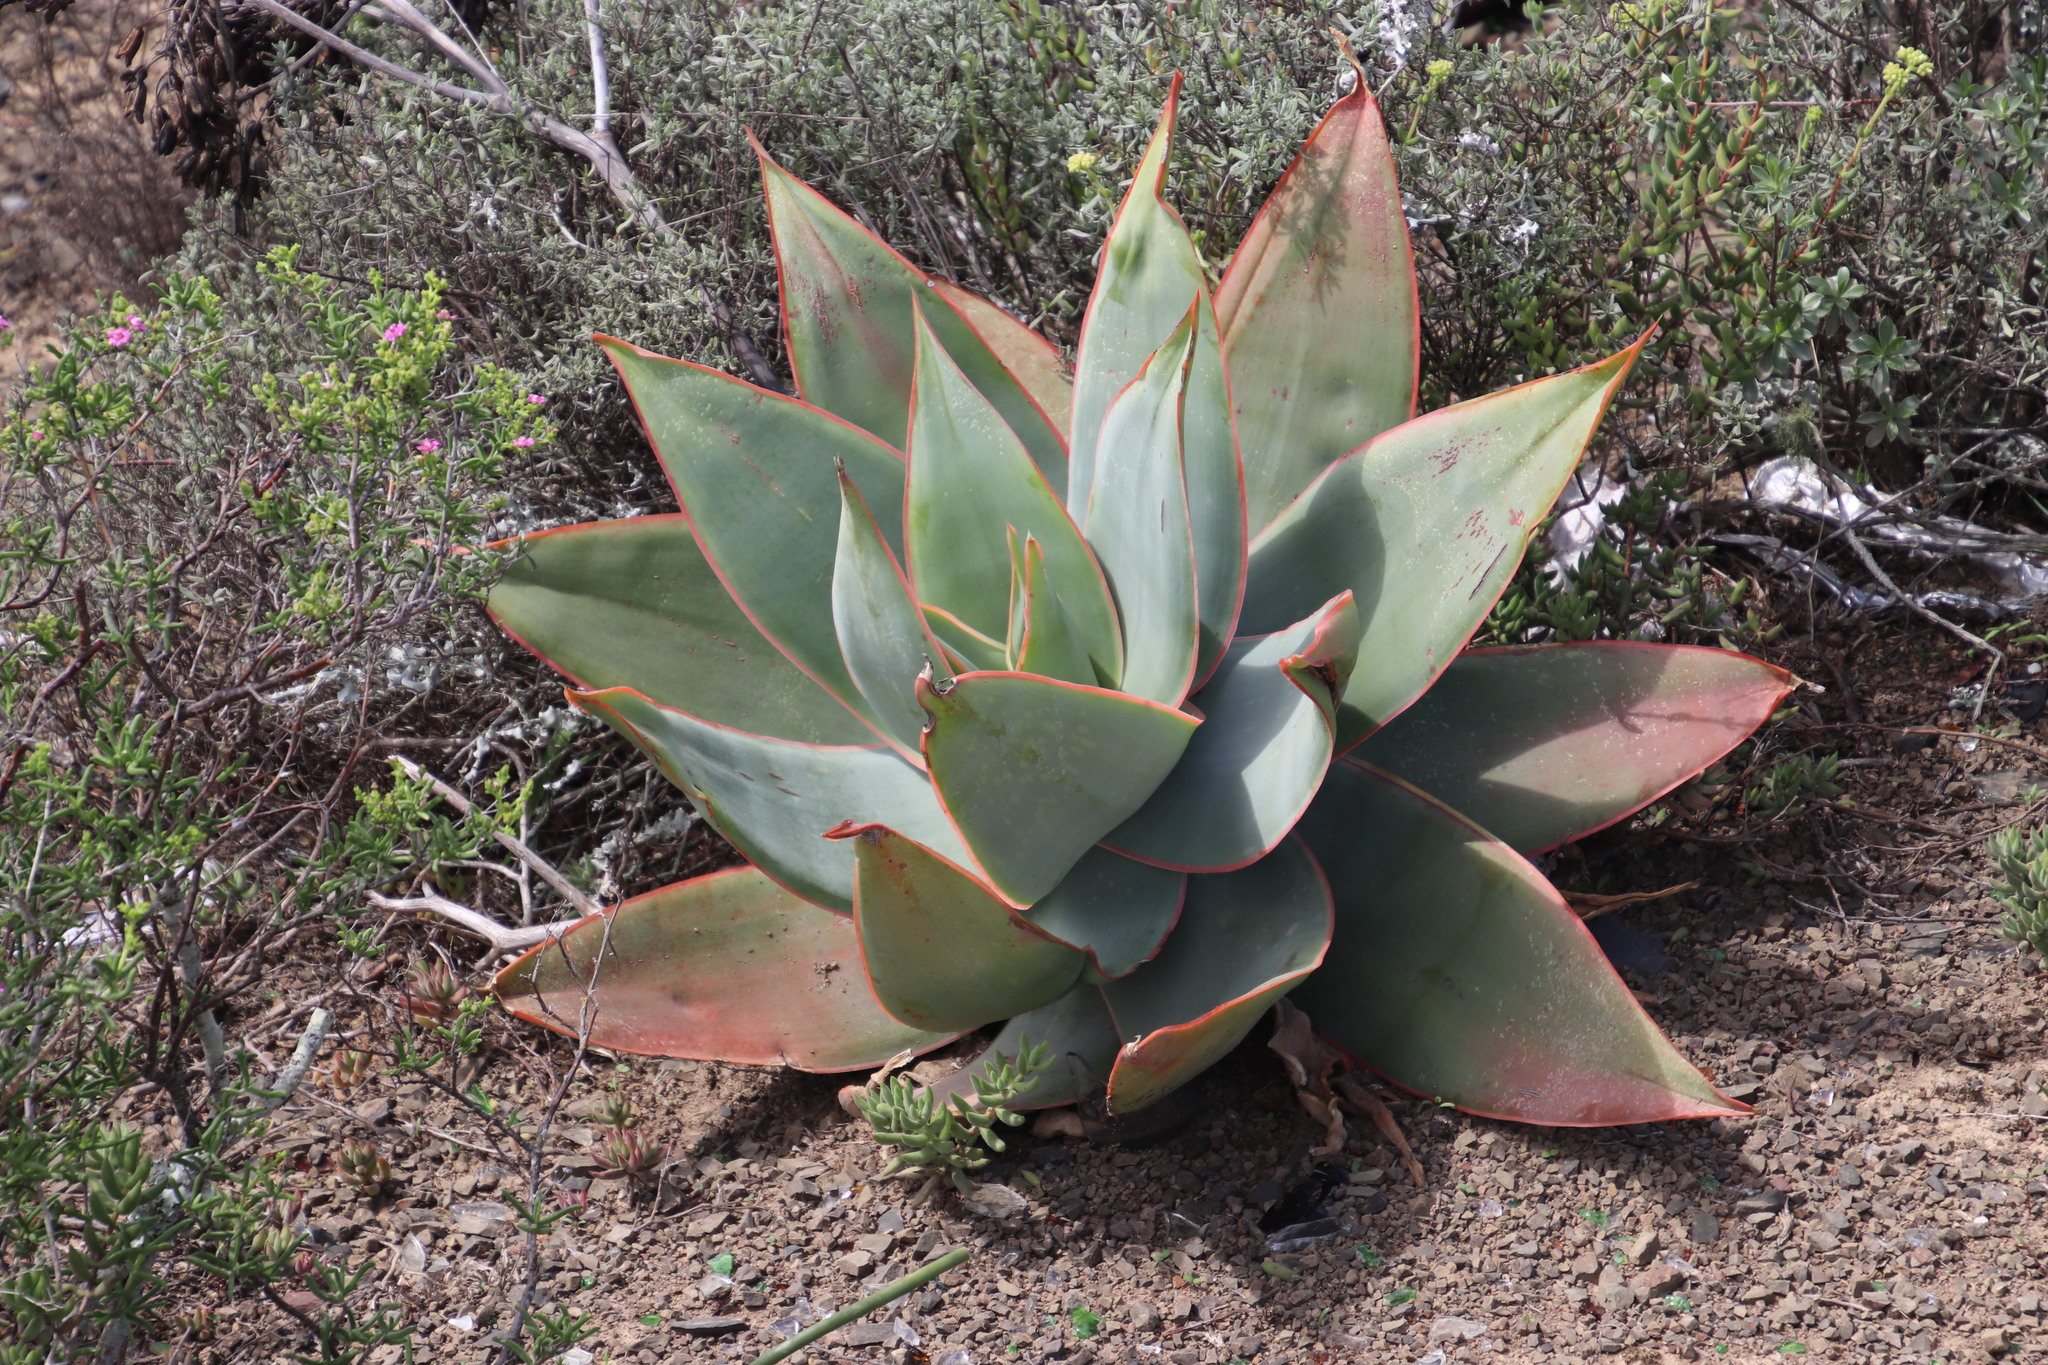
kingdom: Plantae
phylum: Tracheophyta
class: Liliopsida
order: Asparagales
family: Asphodelaceae
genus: Aloe
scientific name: Aloe striata
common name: Coral aloe
